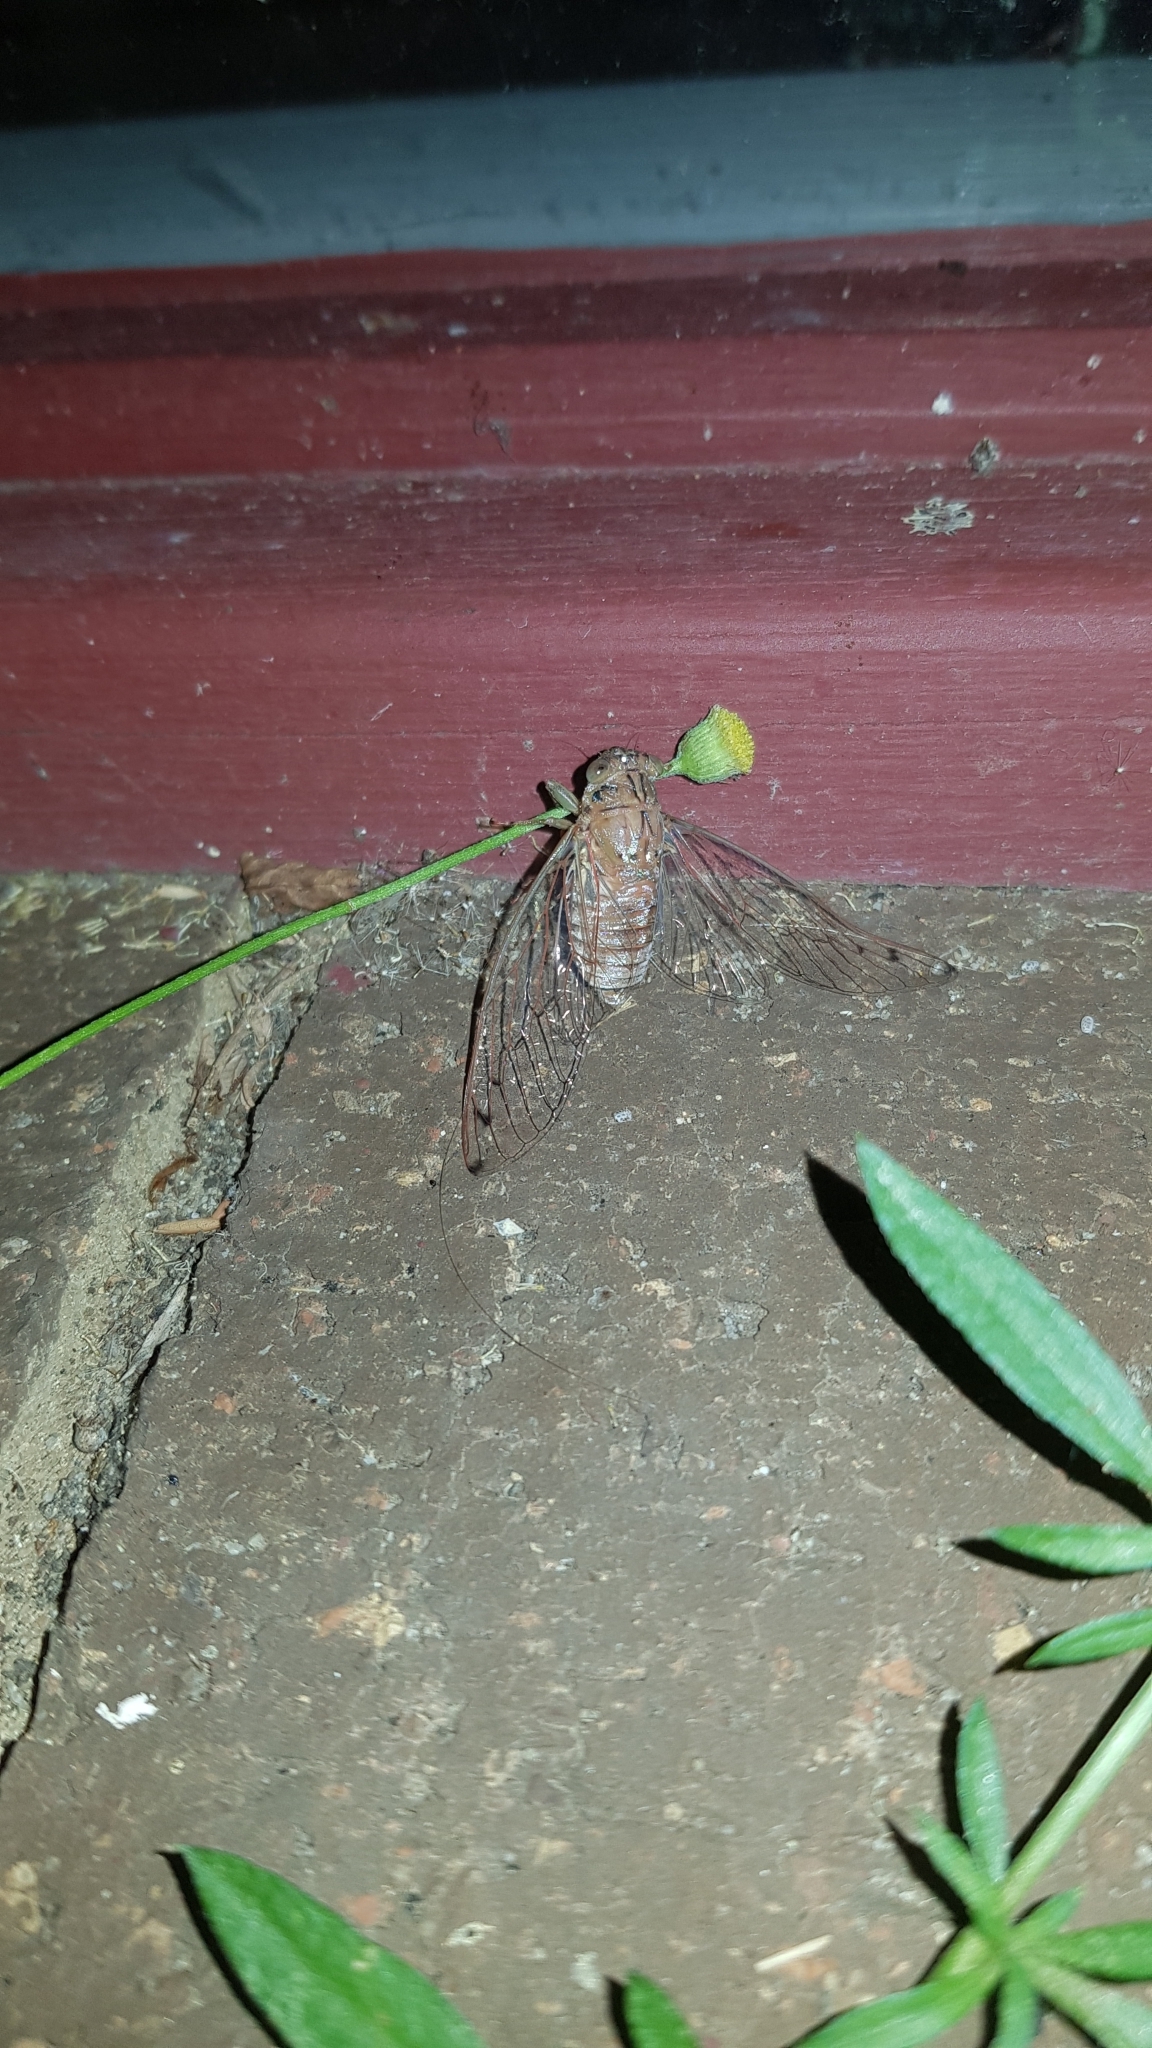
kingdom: Animalia
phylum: Arthropoda
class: Insecta
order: Hemiptera
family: Cicadidae
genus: Tamasa
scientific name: Tamasa tristigma
